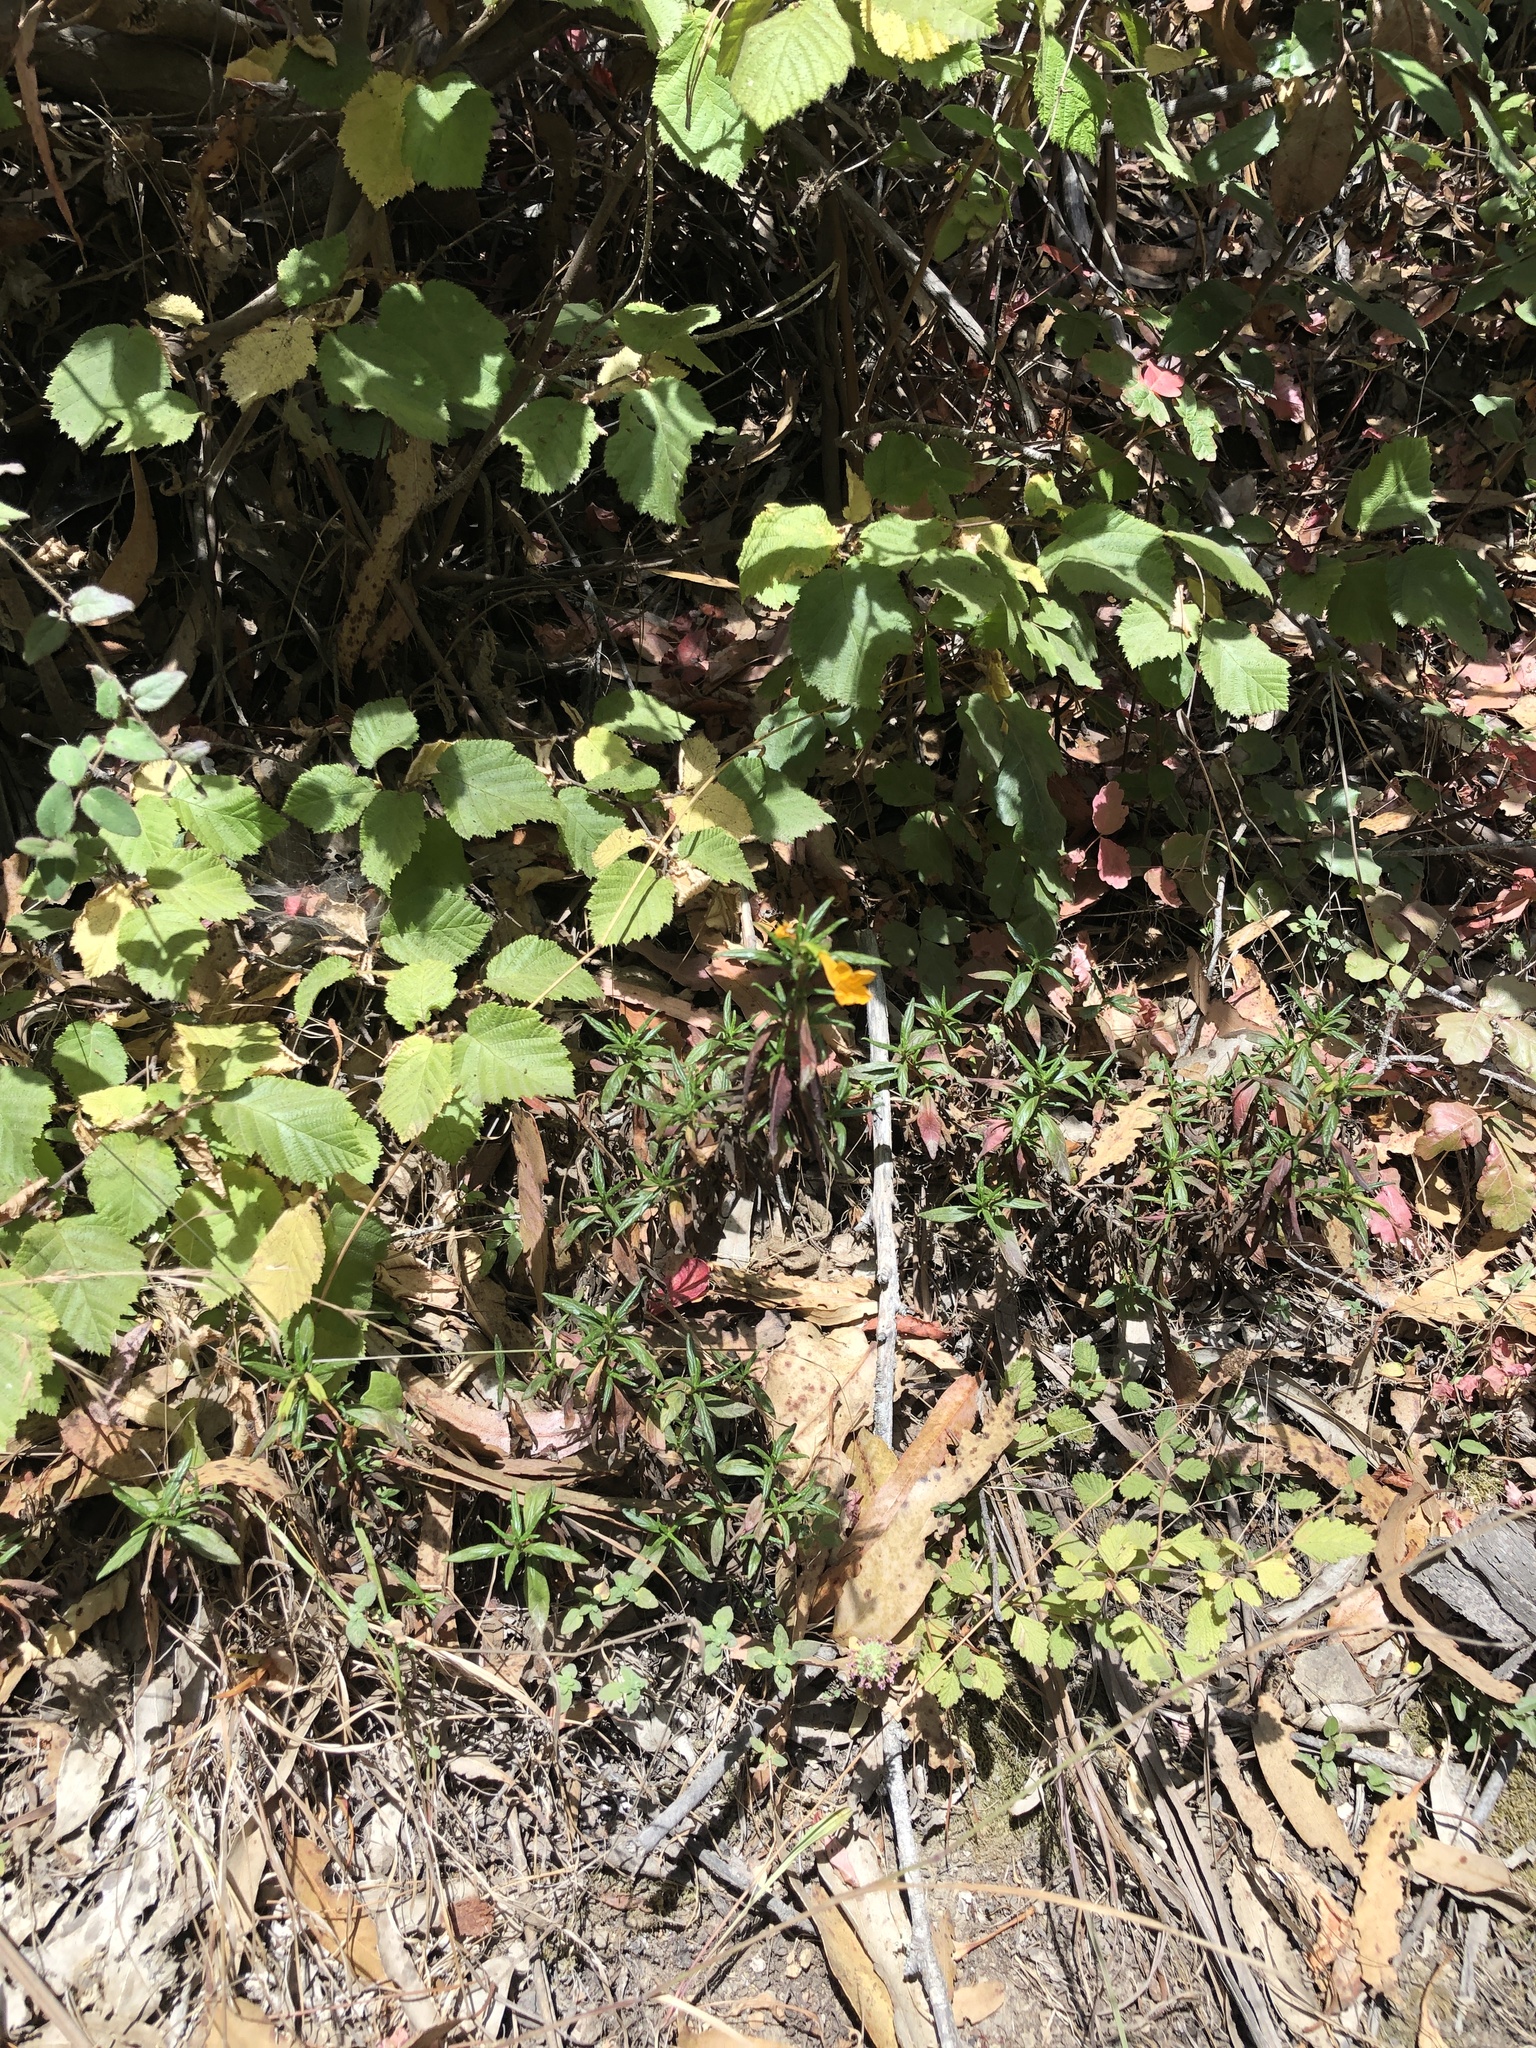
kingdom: Plantae
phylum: Tracheophyta
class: Magnoliopsida
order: Lamiales
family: Phrymaceae
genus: Diplacus
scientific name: Diplacus aurantiacus
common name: Bush monkey-flower
